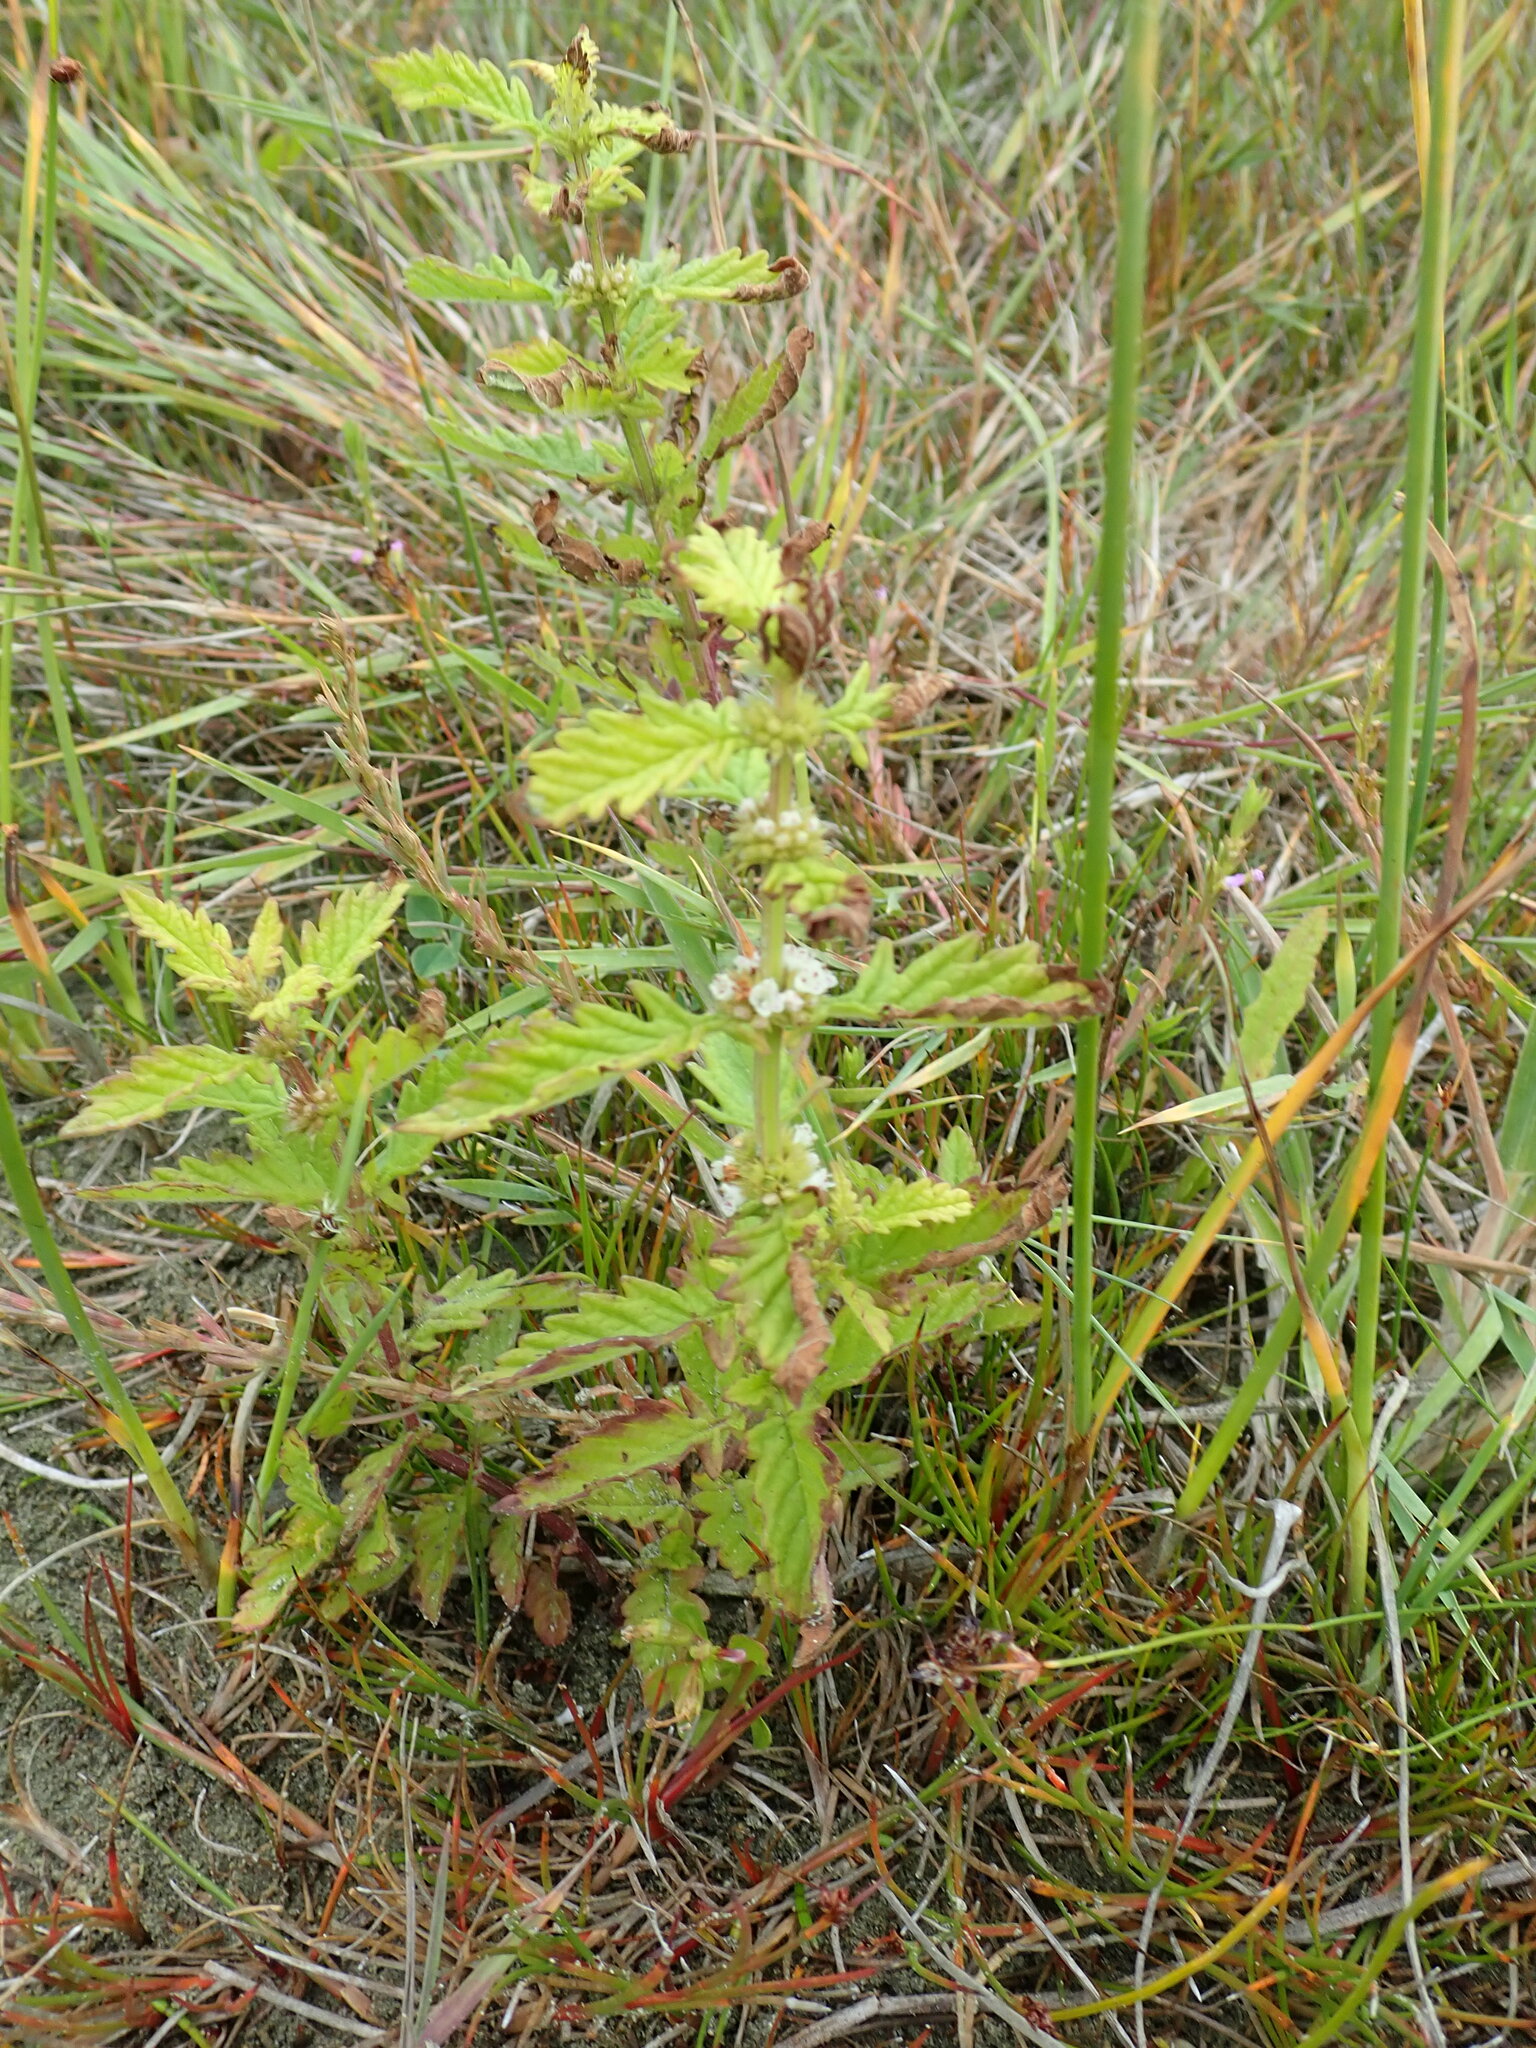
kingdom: Plantae
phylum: Tracheophyta
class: Magnoliopsida
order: Lamiales
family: Lamiaceae
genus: Lycopus
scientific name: Lycopus europaeus
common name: European bugleweed
